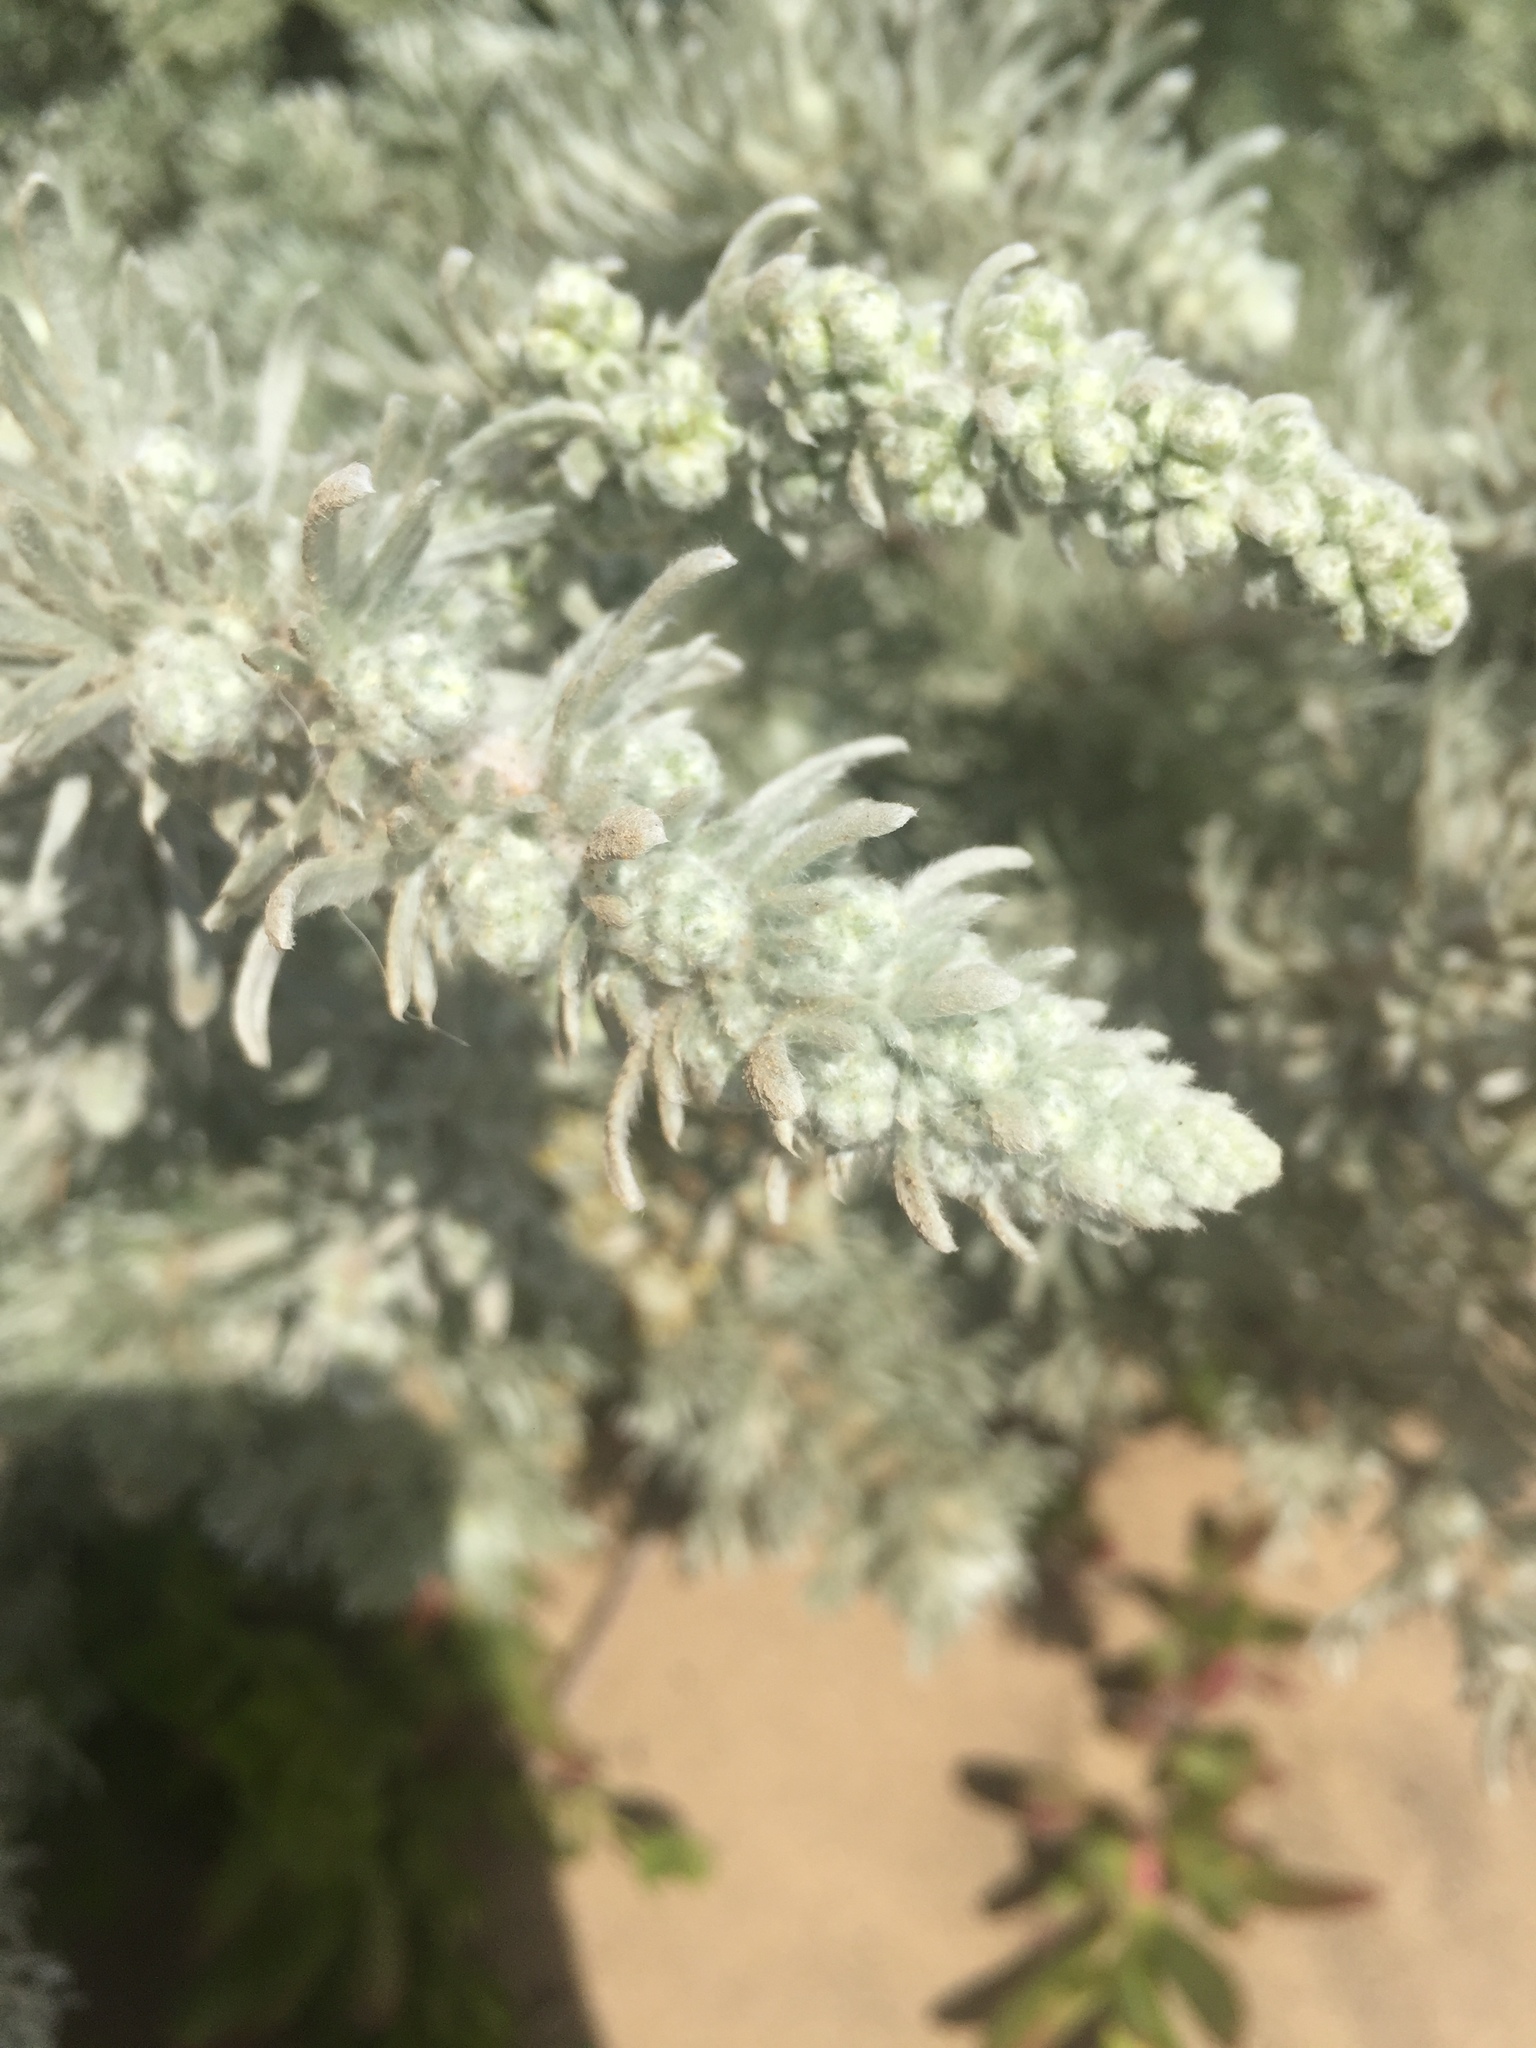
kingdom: Plantae
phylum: Tracheophyta
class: Magnoliopsida
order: Asterales
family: Asteraceae
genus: Artemisia
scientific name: Artemisia pycnocephala
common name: Coastal sagewort
